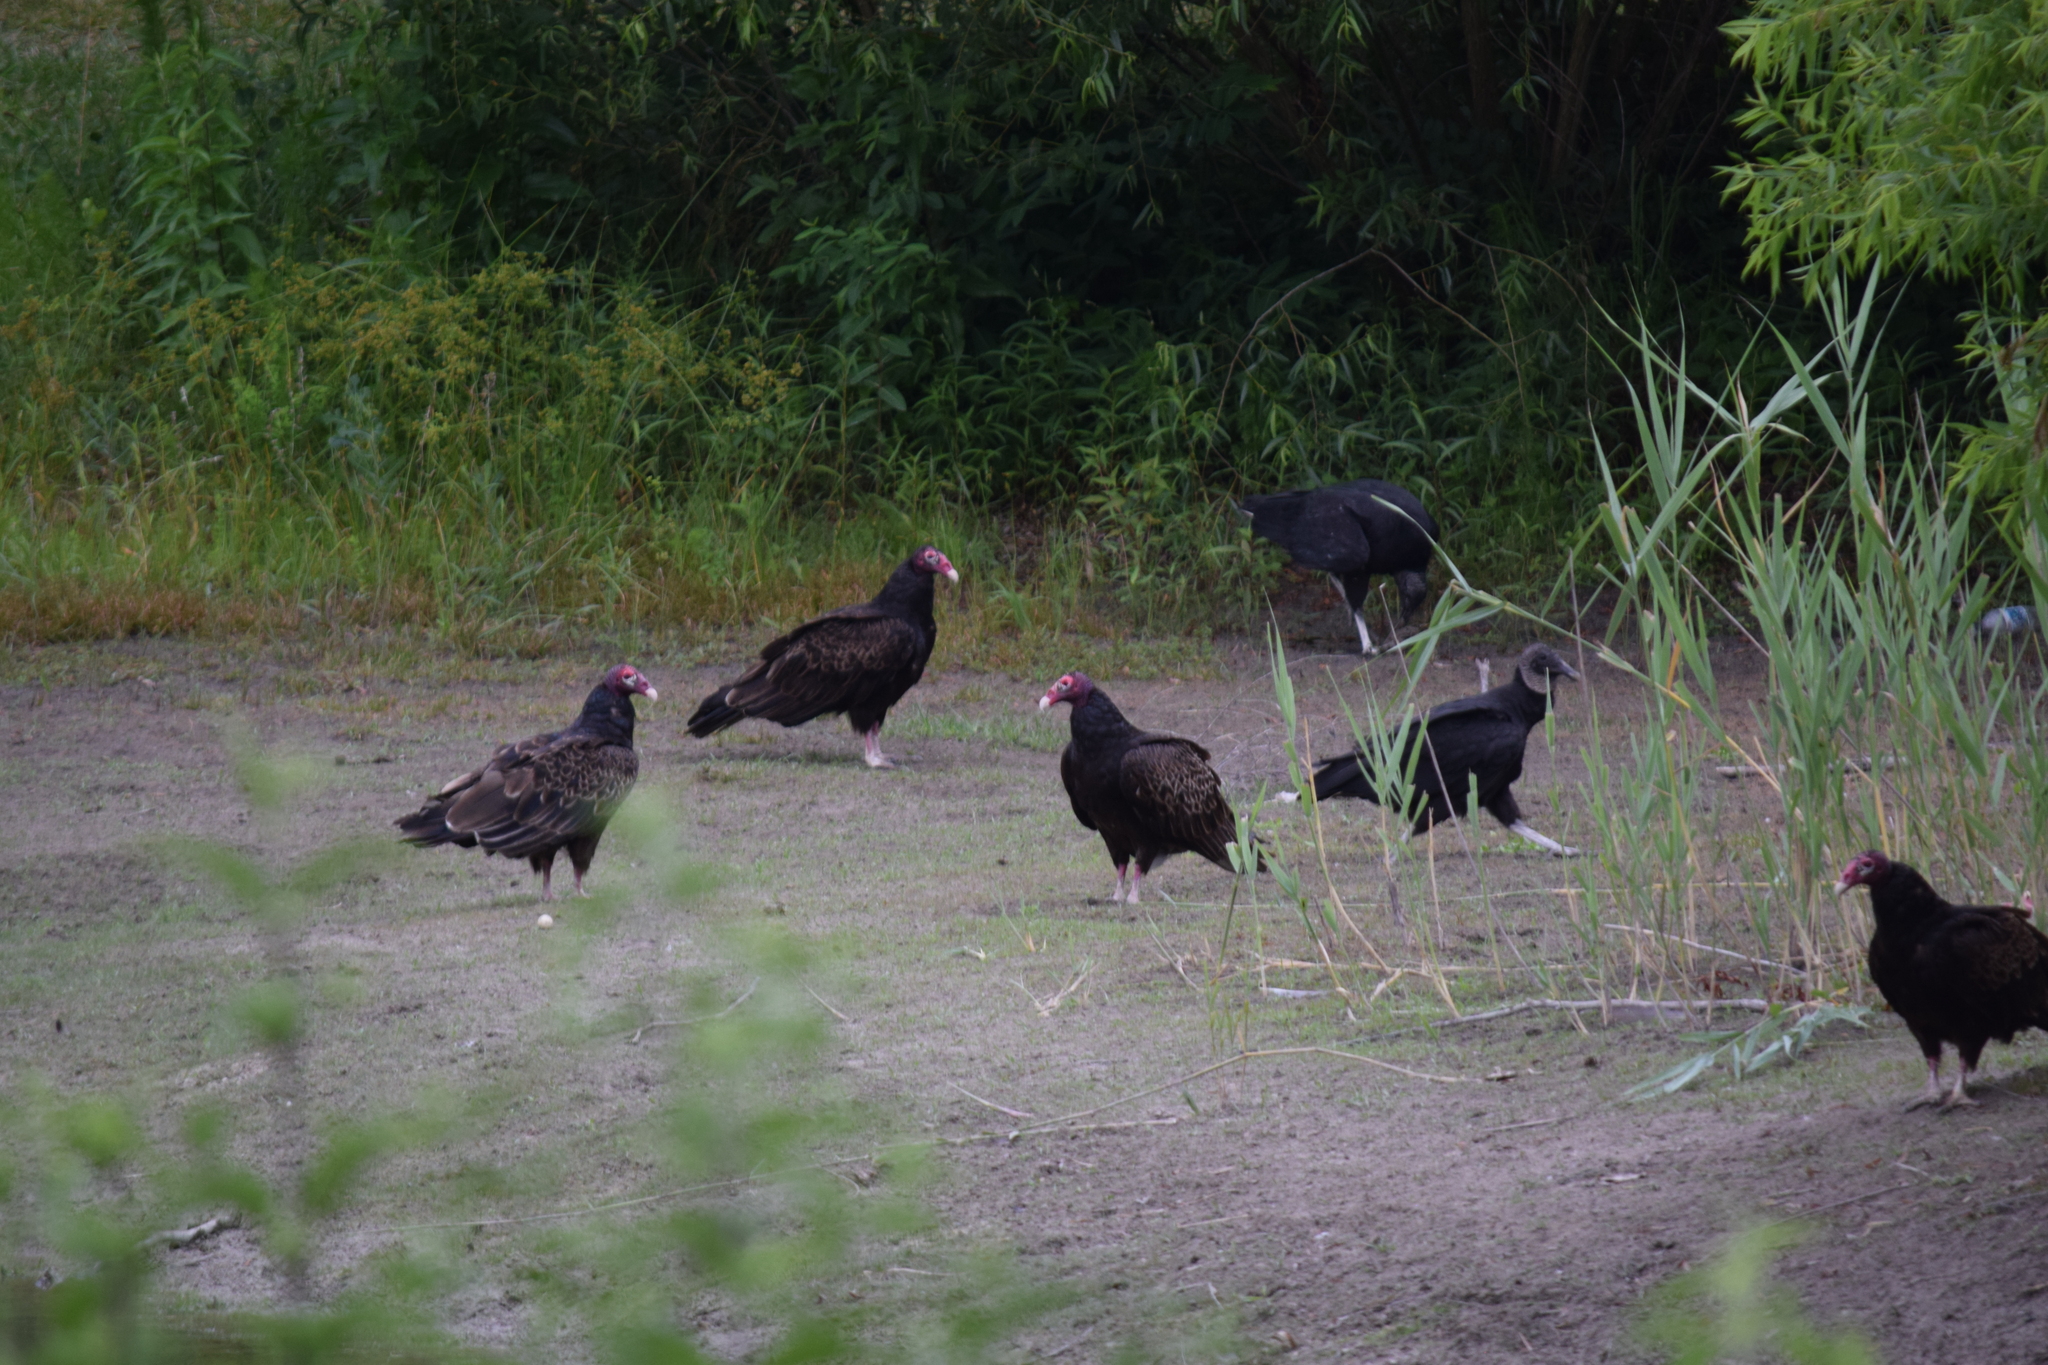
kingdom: Animalia
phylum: Chordata
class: Aves
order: Accipitriformes
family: Cathartidae
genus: Cathartes
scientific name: Cathartes aura
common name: Turkey vulture
